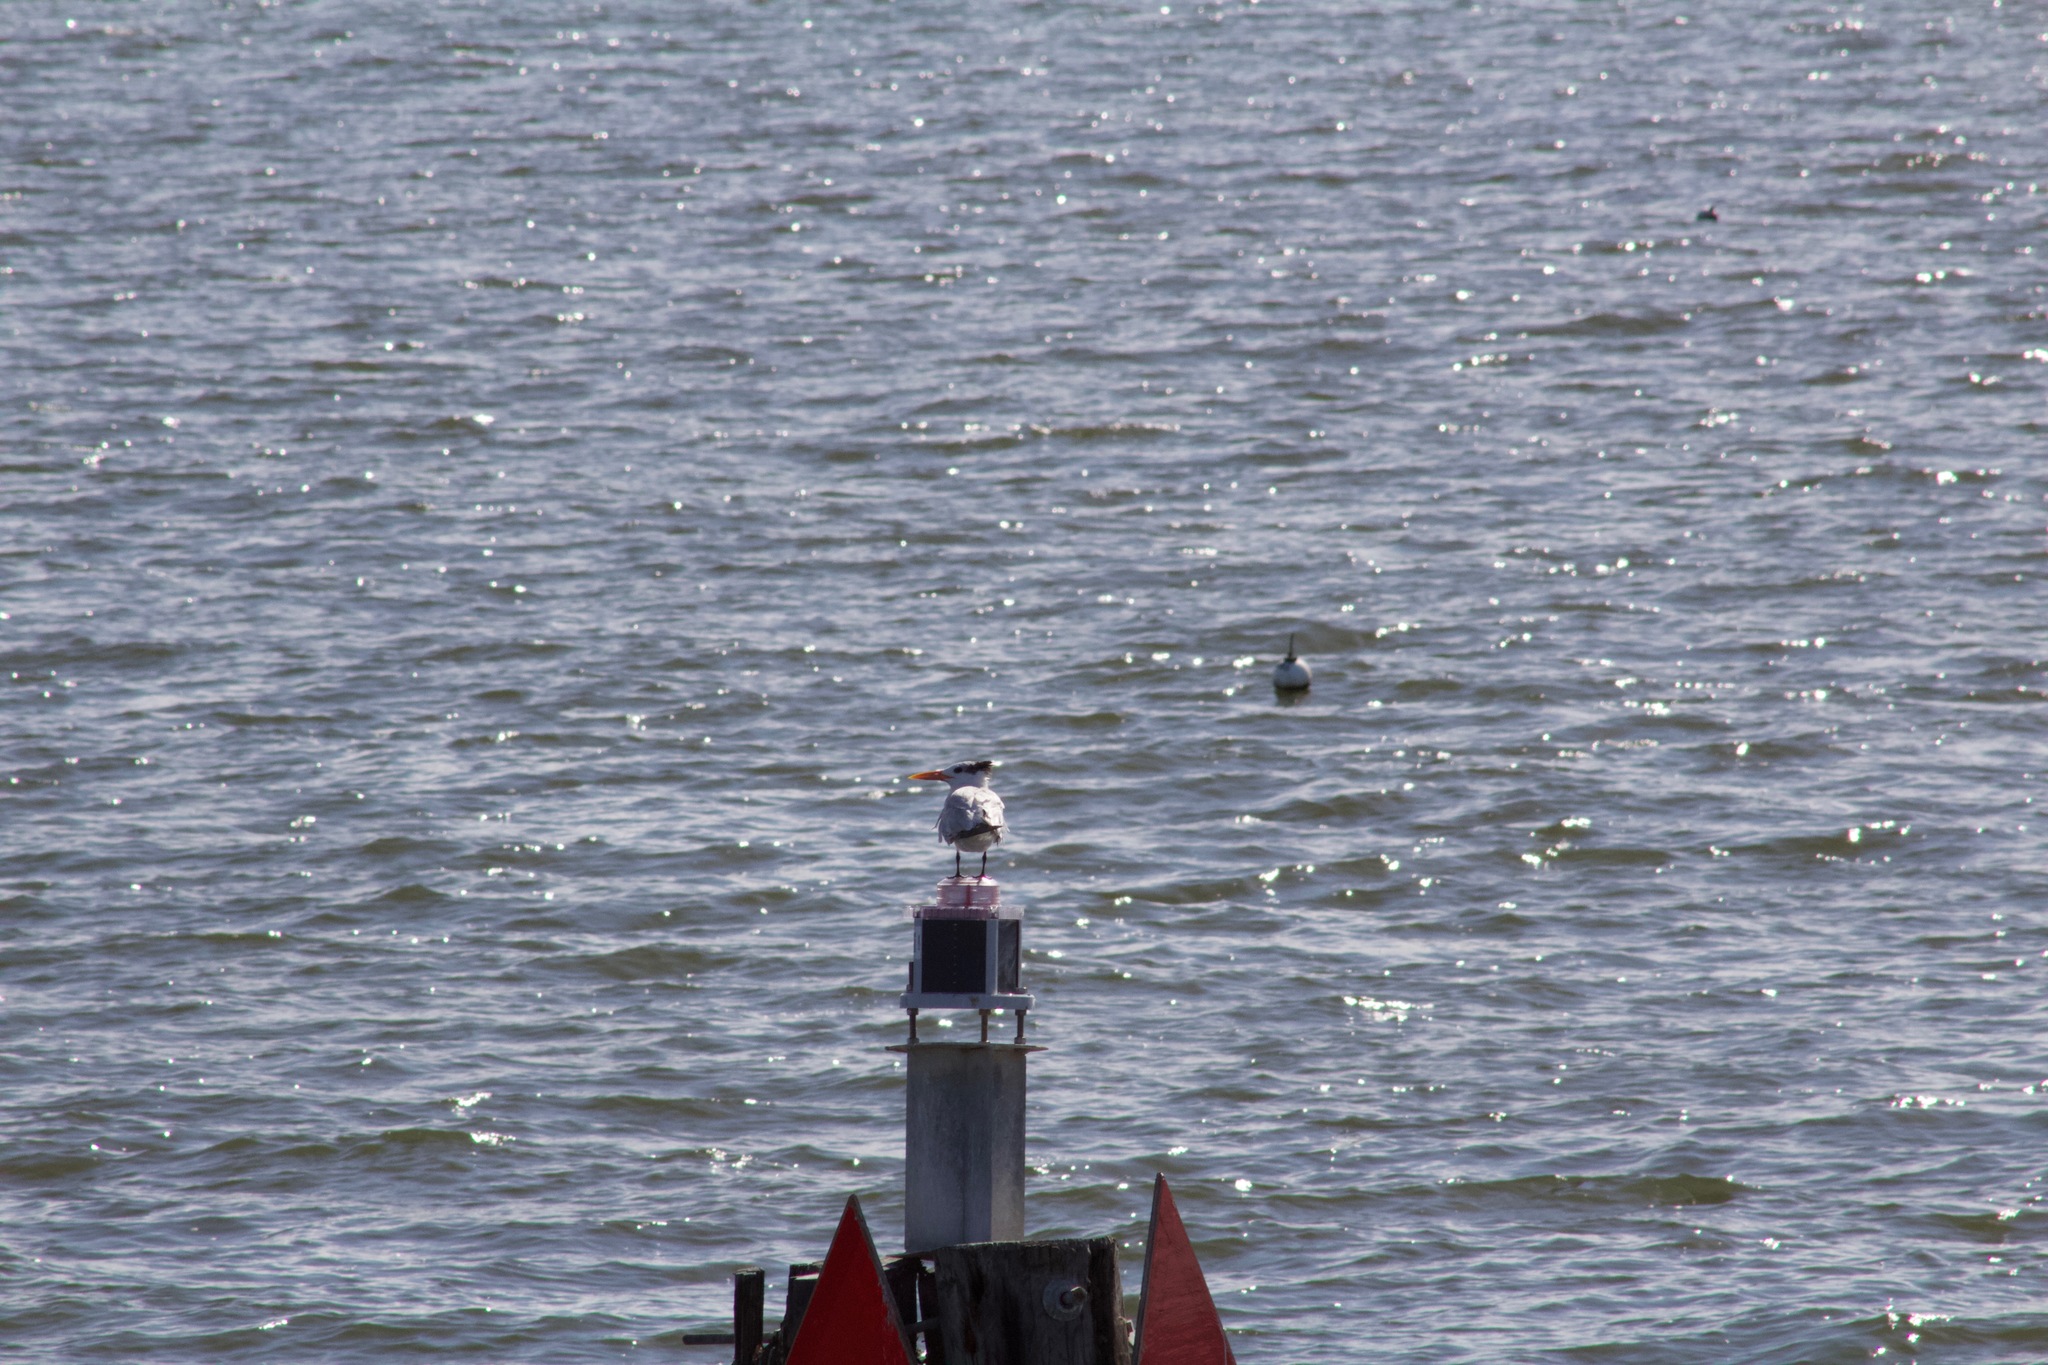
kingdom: Animalia
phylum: Chordata
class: Aves
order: Charadriiformes
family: Laridae
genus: Thalasseus
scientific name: Thalasseus maximus
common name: Royal tern
